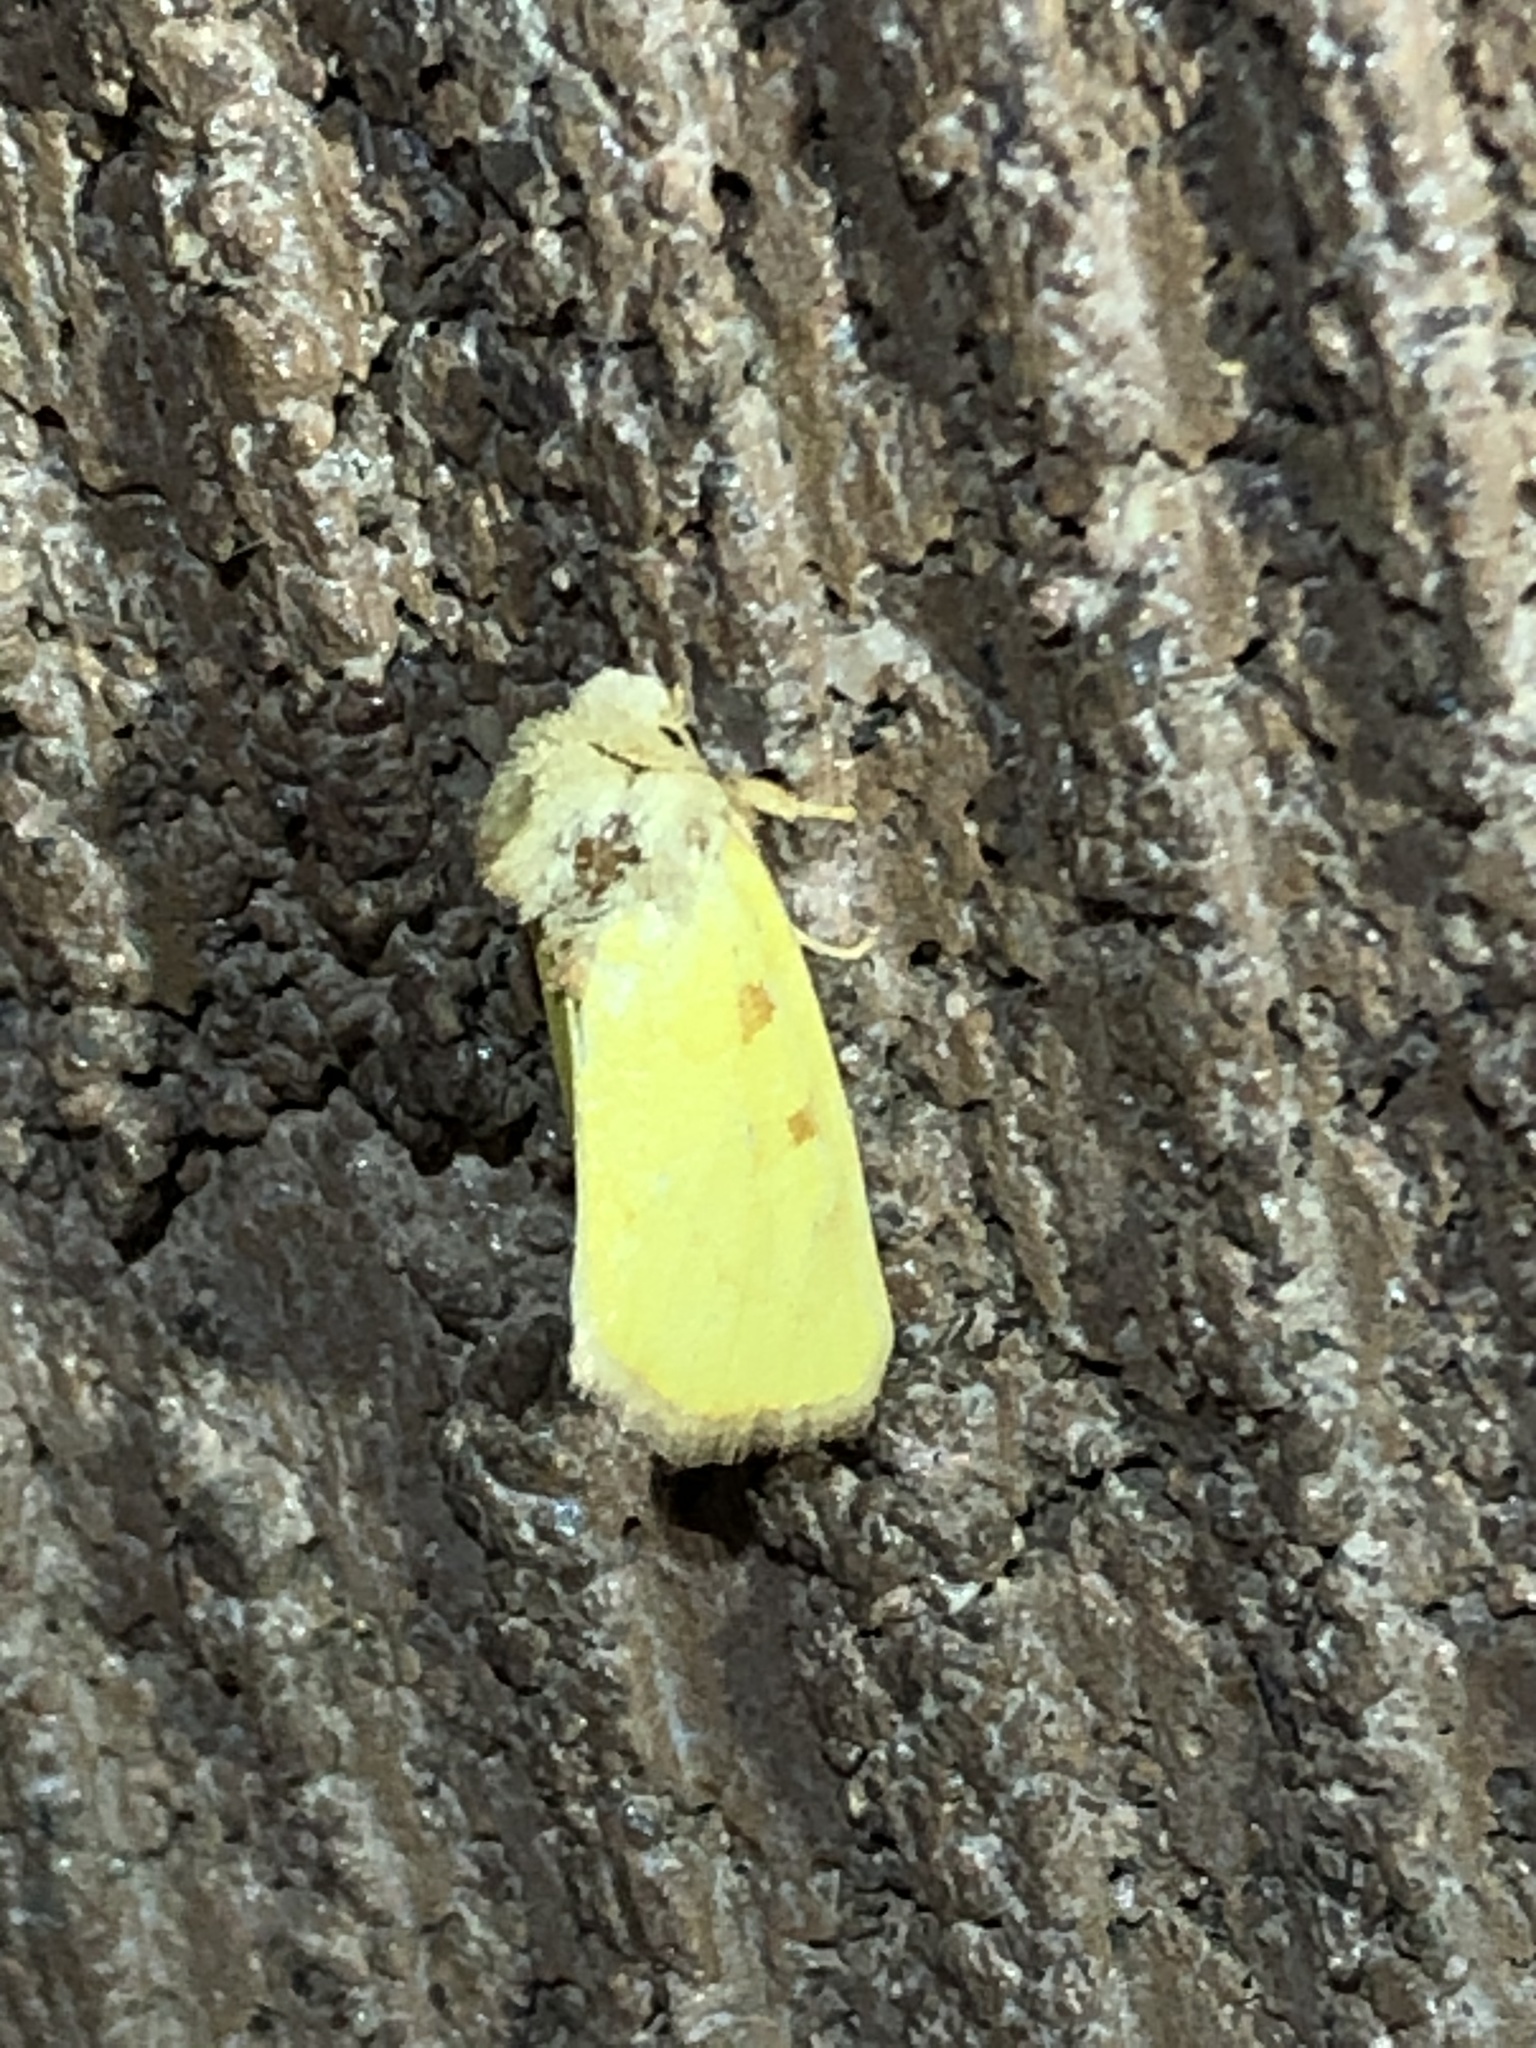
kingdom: Animalia
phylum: Arthropoda
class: Insecta
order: Lepidoptera
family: Noctuidae
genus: Nocloa
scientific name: Nocloa aliaga
